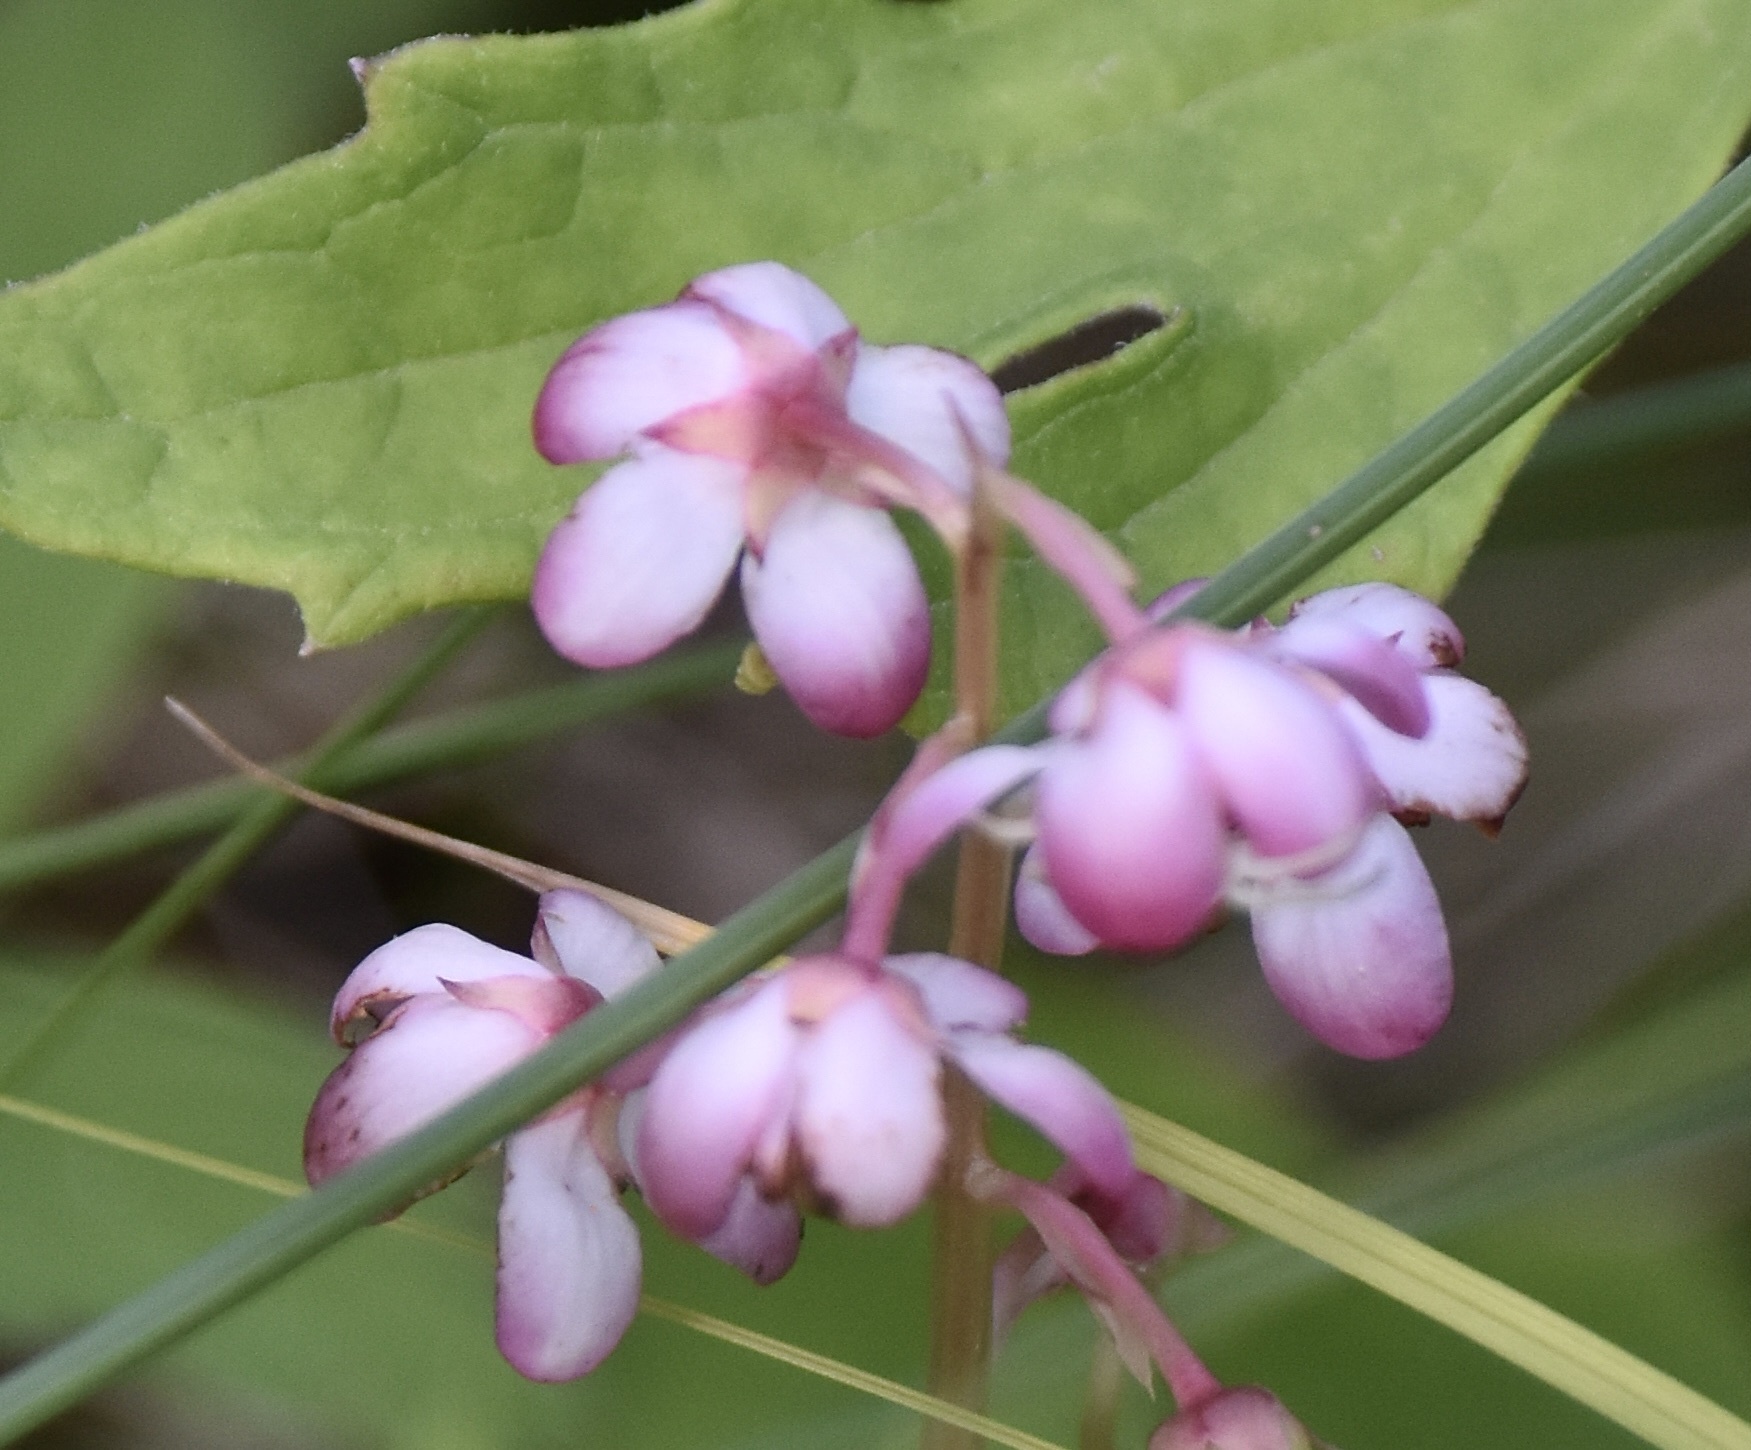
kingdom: Plantae
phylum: Tracheophyta
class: Magnoliopsida
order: Ericales
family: Ericaceae
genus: Pyrola
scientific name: Pyrola asarifolia
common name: Bog wintergreen
